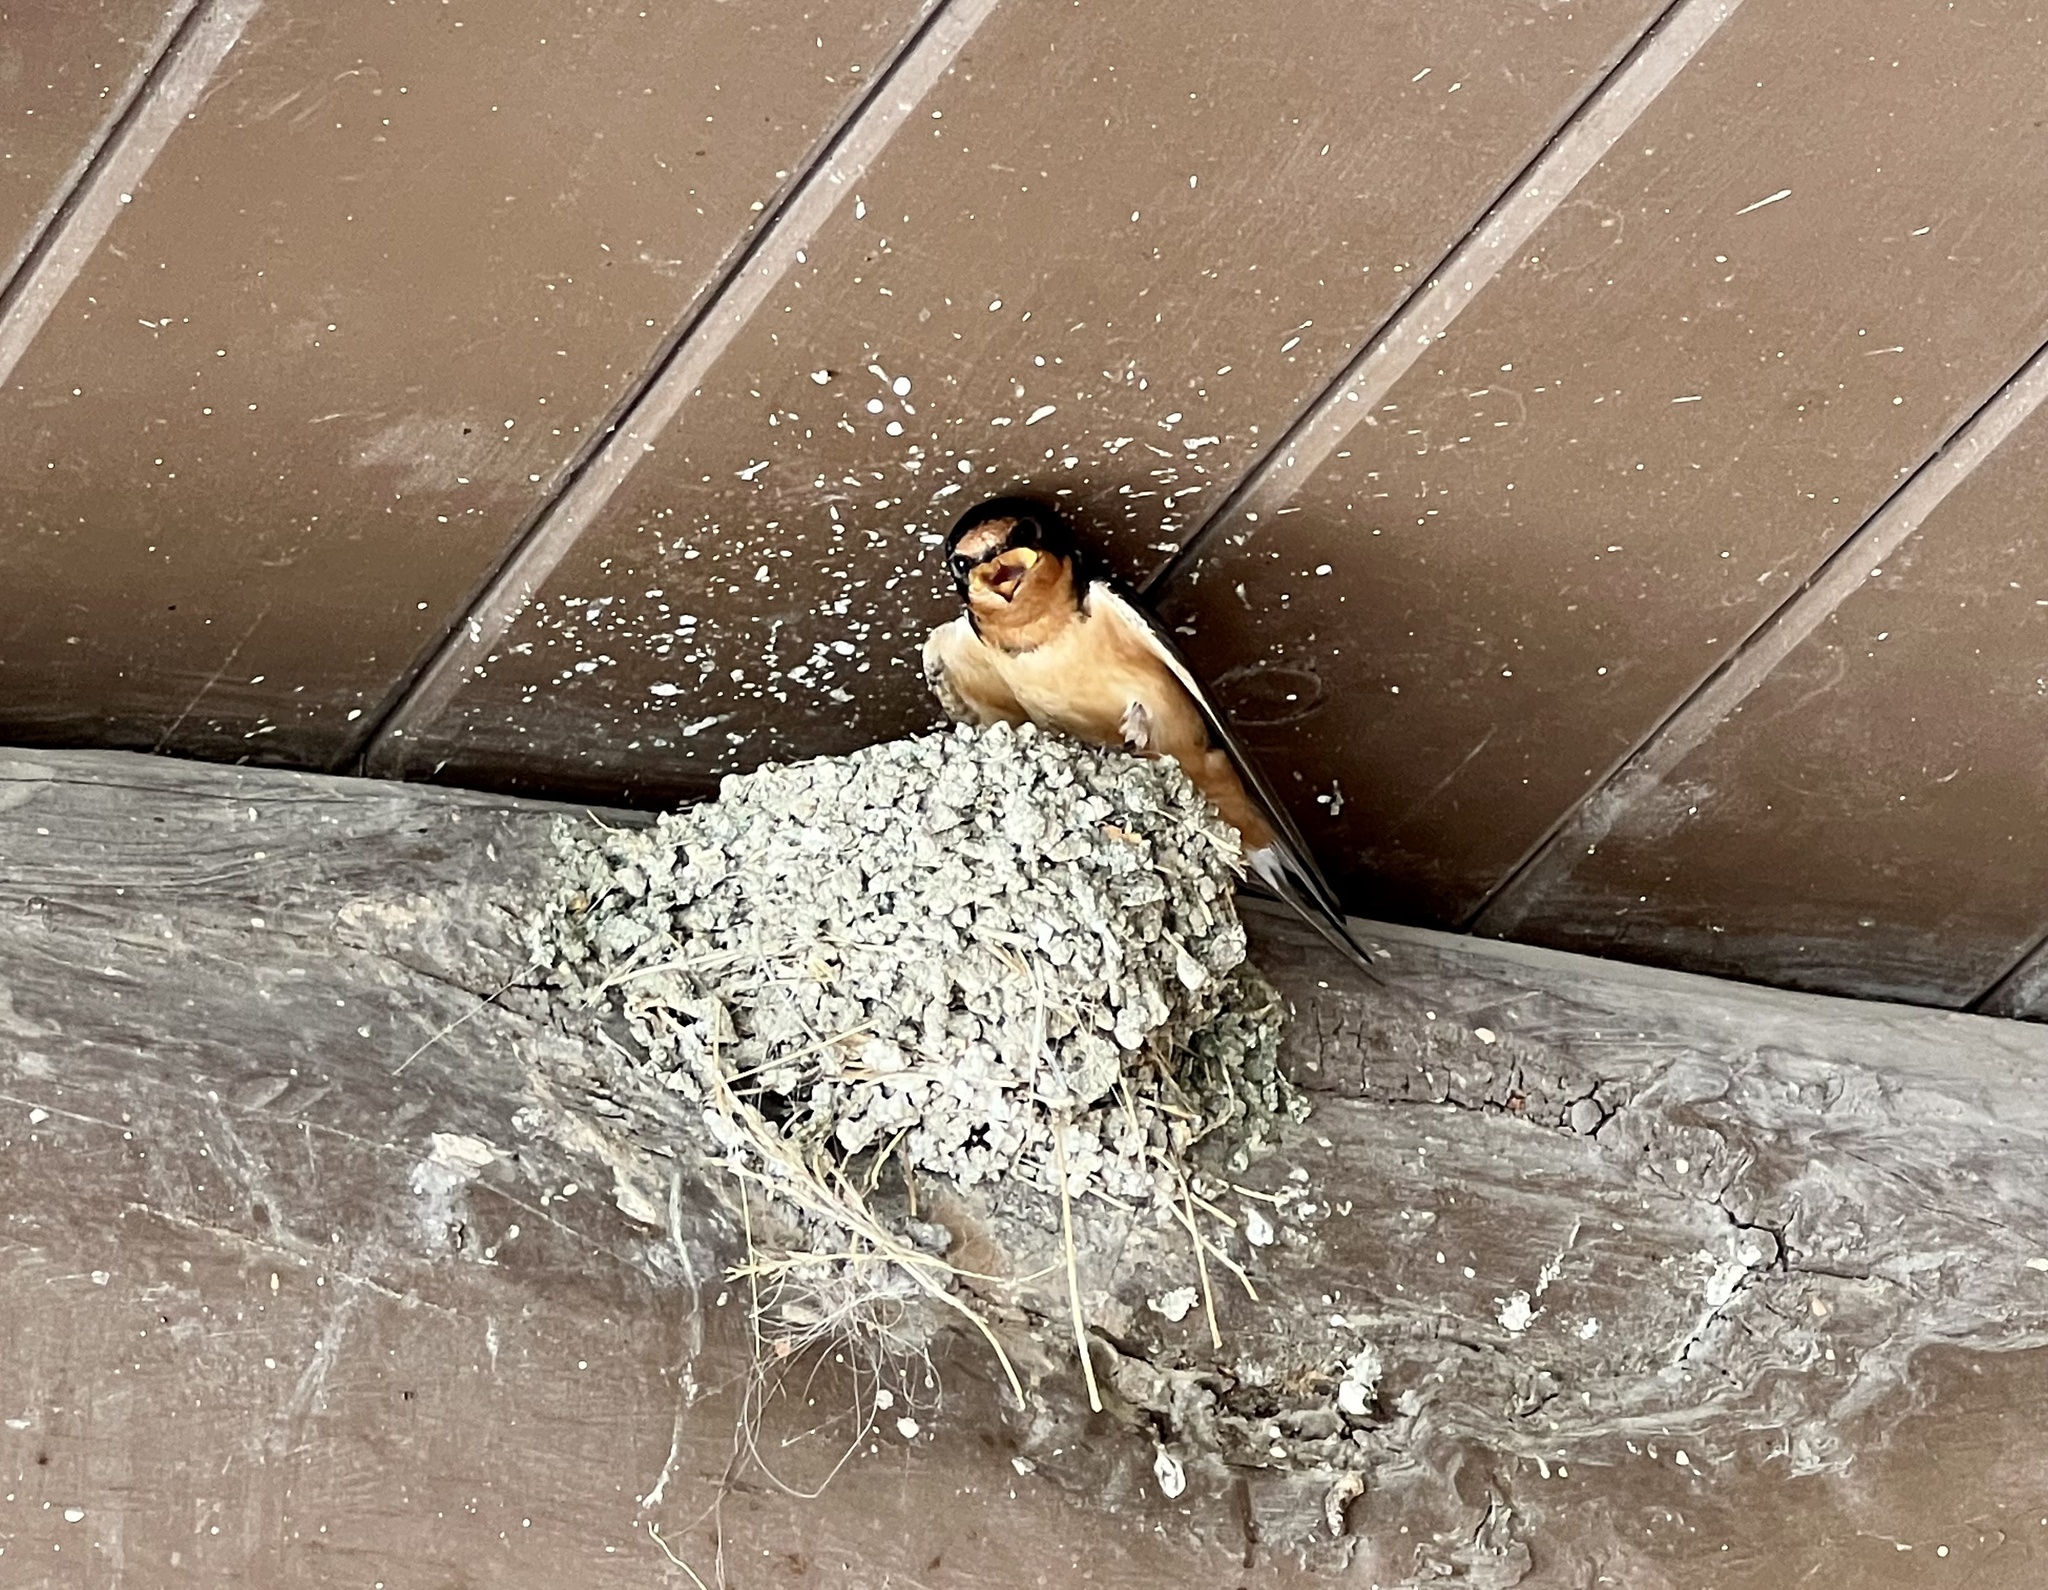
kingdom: Animalia
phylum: Chordata
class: Aves
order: Passeriformes
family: Hirundinidae
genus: Hirundo
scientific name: Hirundo rustica
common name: Barn swallow
